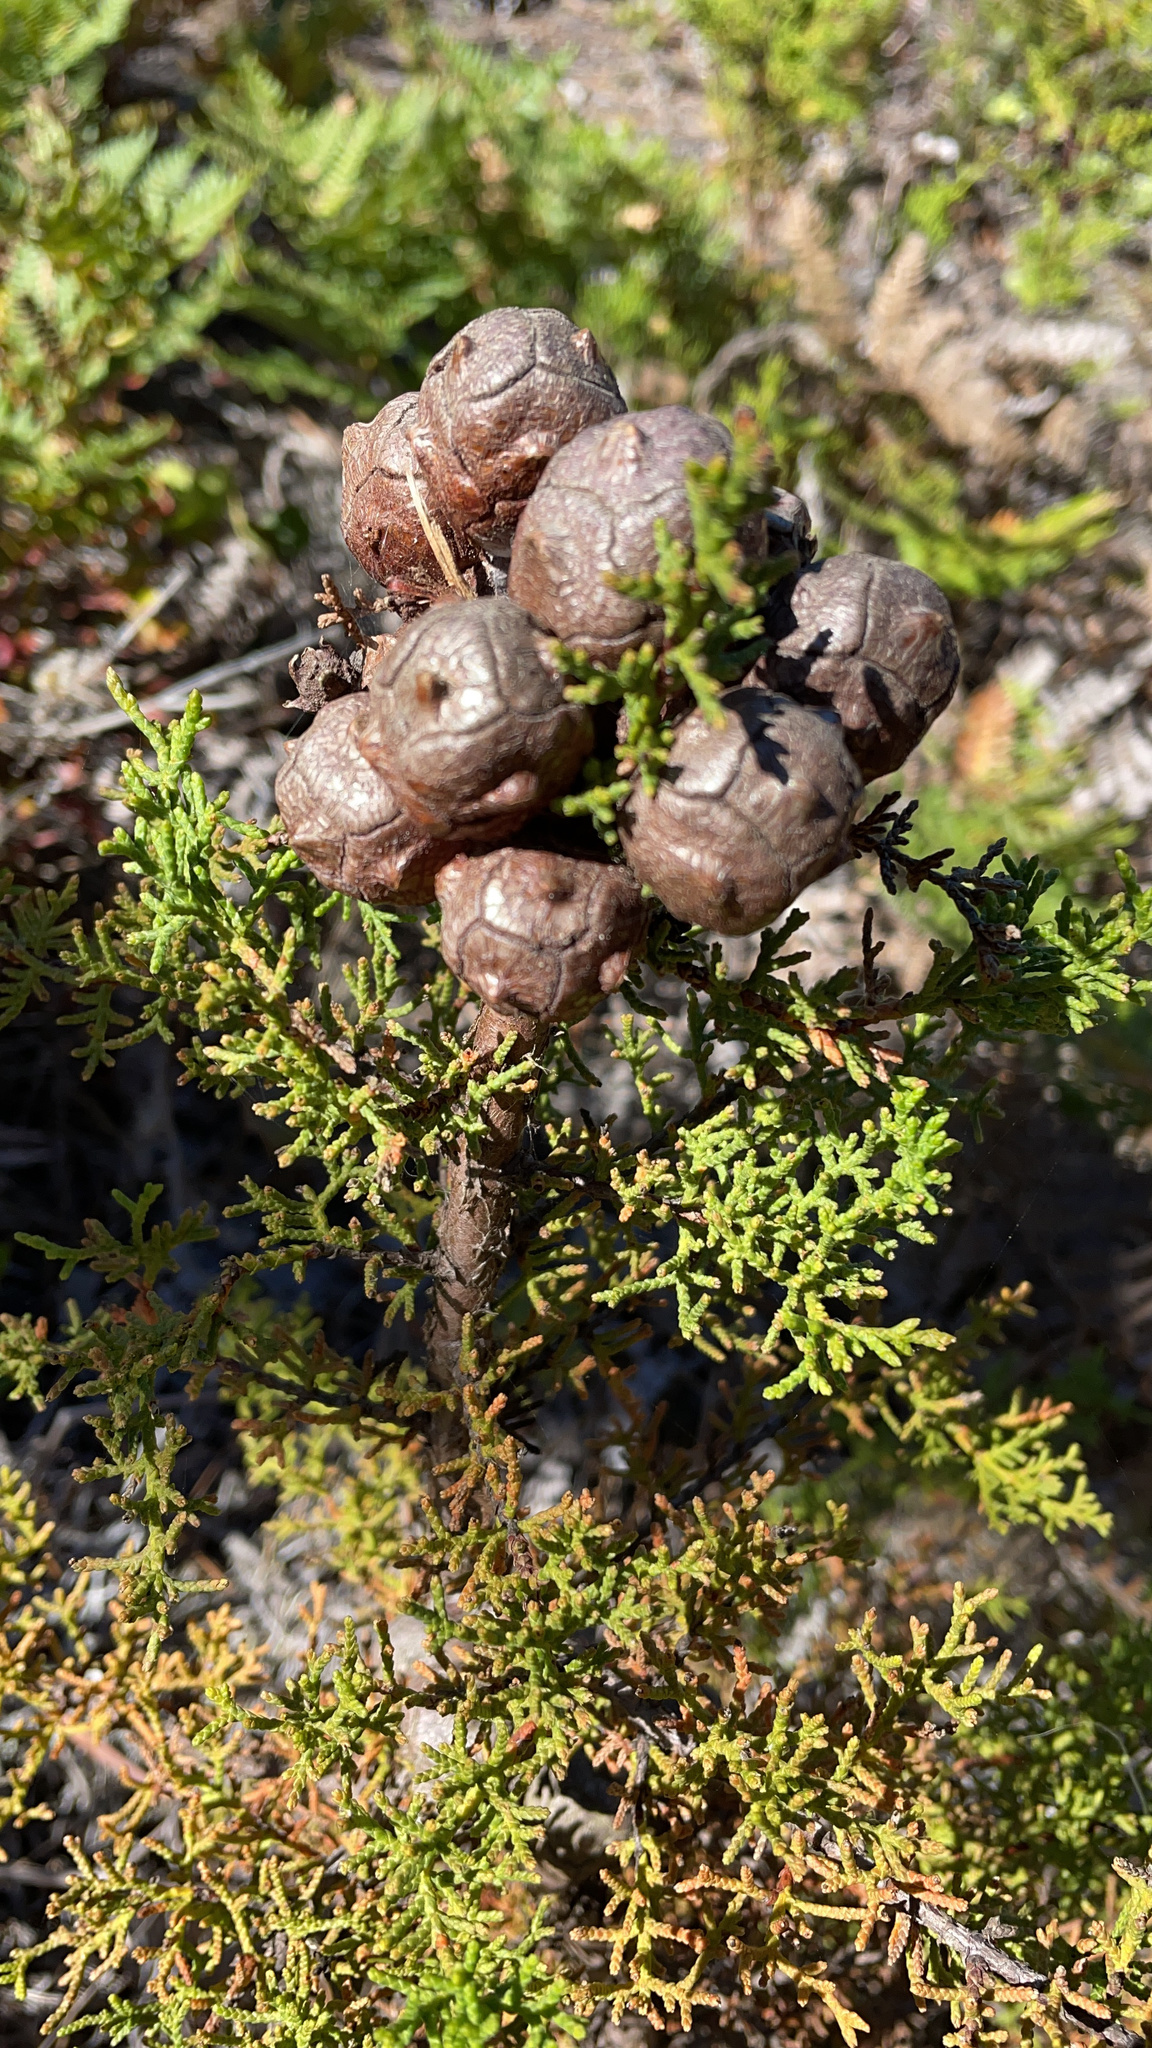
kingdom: Plantae
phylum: Tracheophyta
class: Pinopsida
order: Pinales
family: Cupressaceae
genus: Cupressus
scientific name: Cupressus goveniana
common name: Gowen cypress
